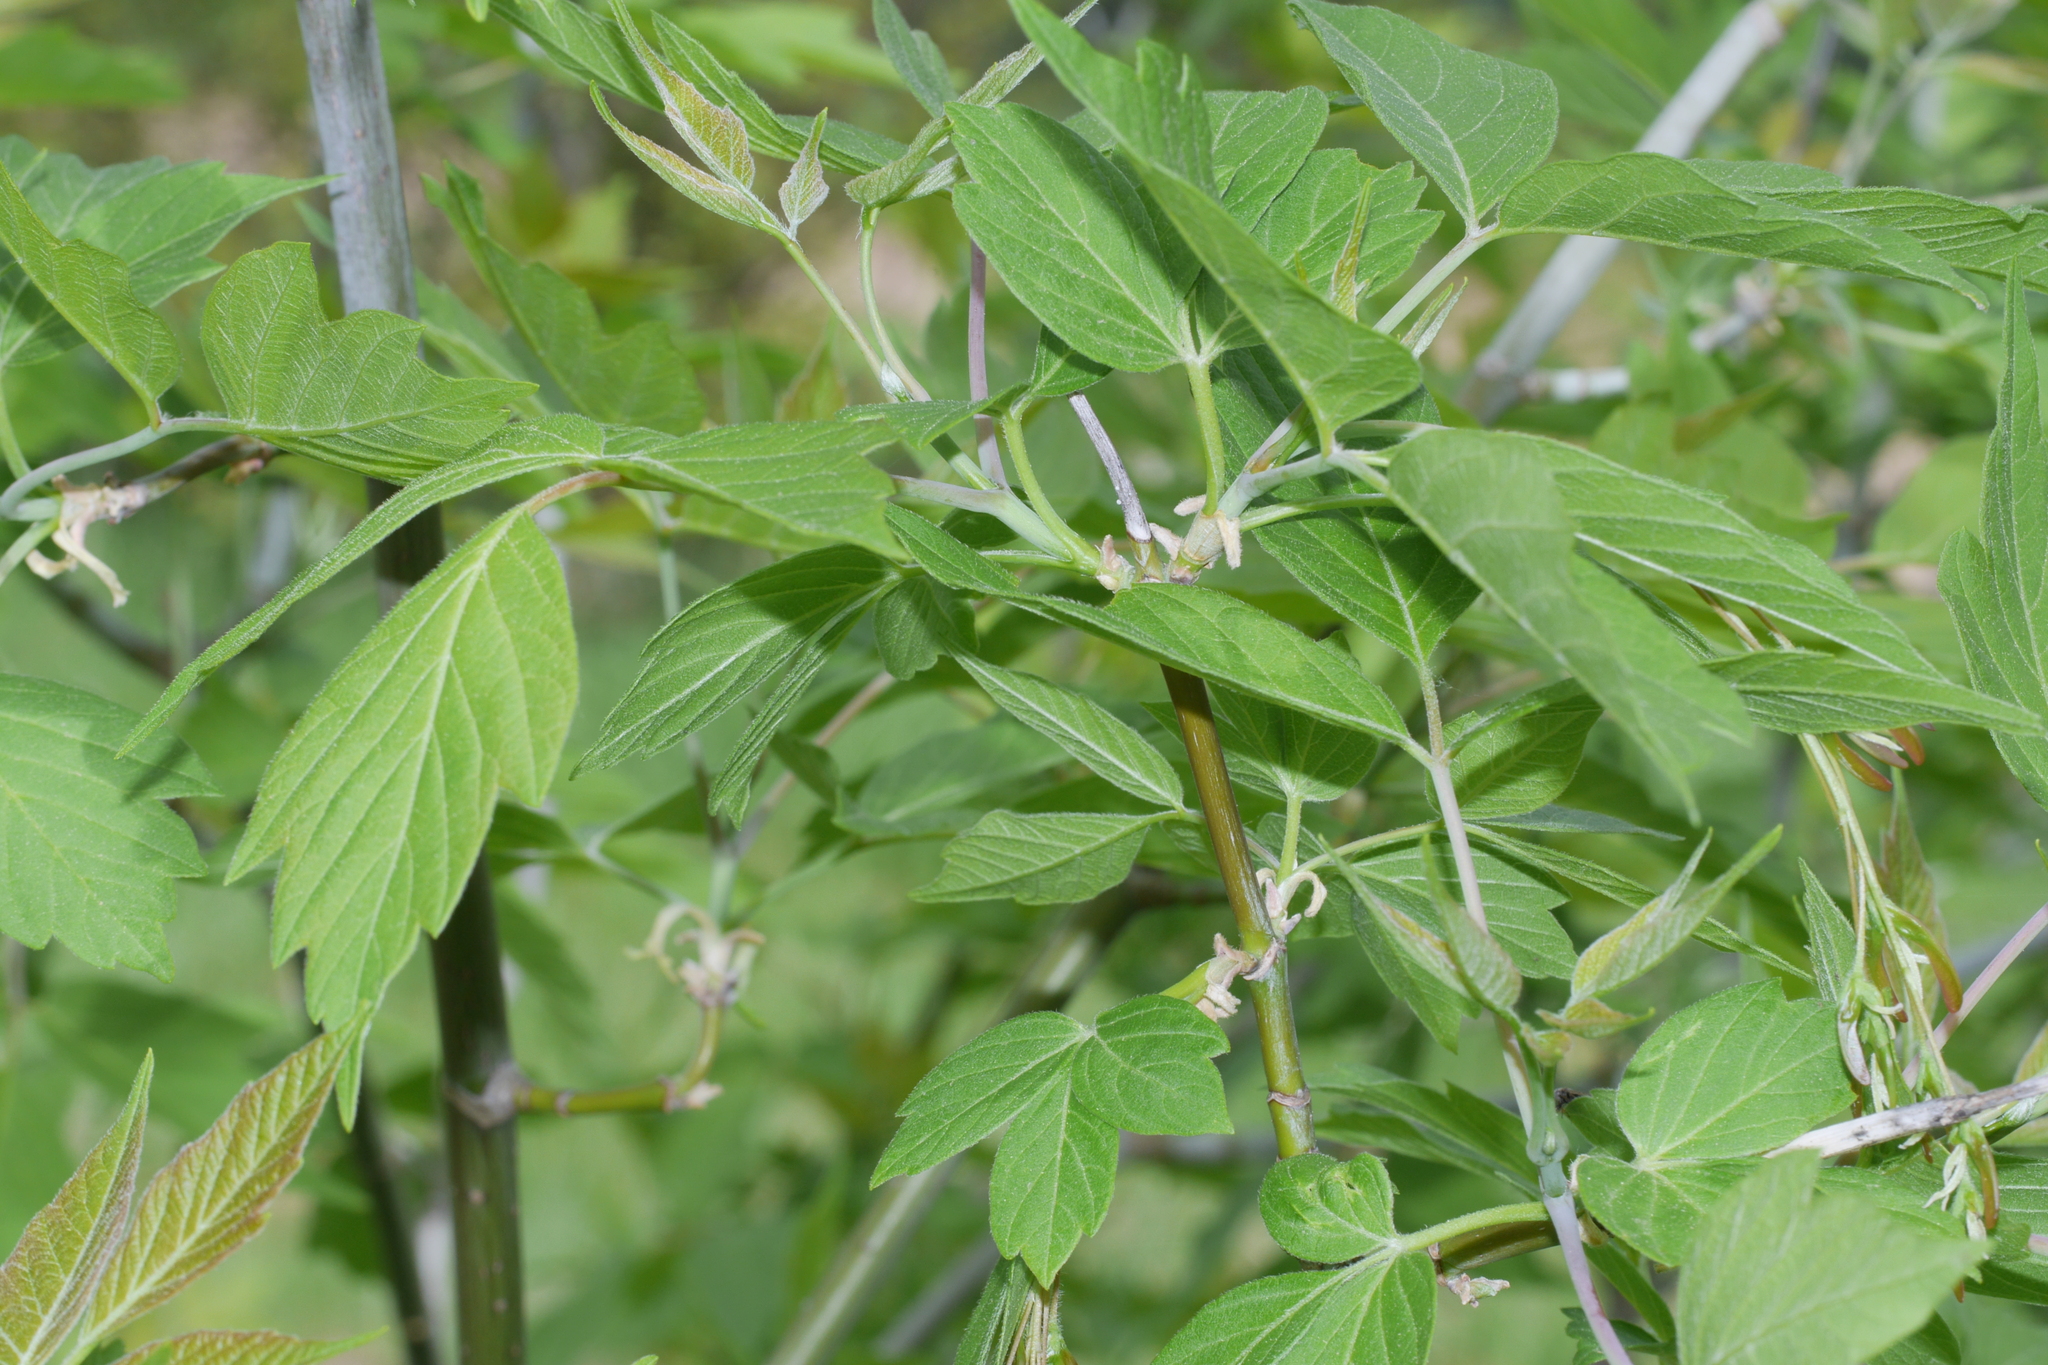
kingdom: Plantae
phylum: Tracheophyta
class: Magnoliopsida
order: Sapindales
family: Sapindaceae
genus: Acer
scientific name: Acer negundo
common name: Ashleaf maple
